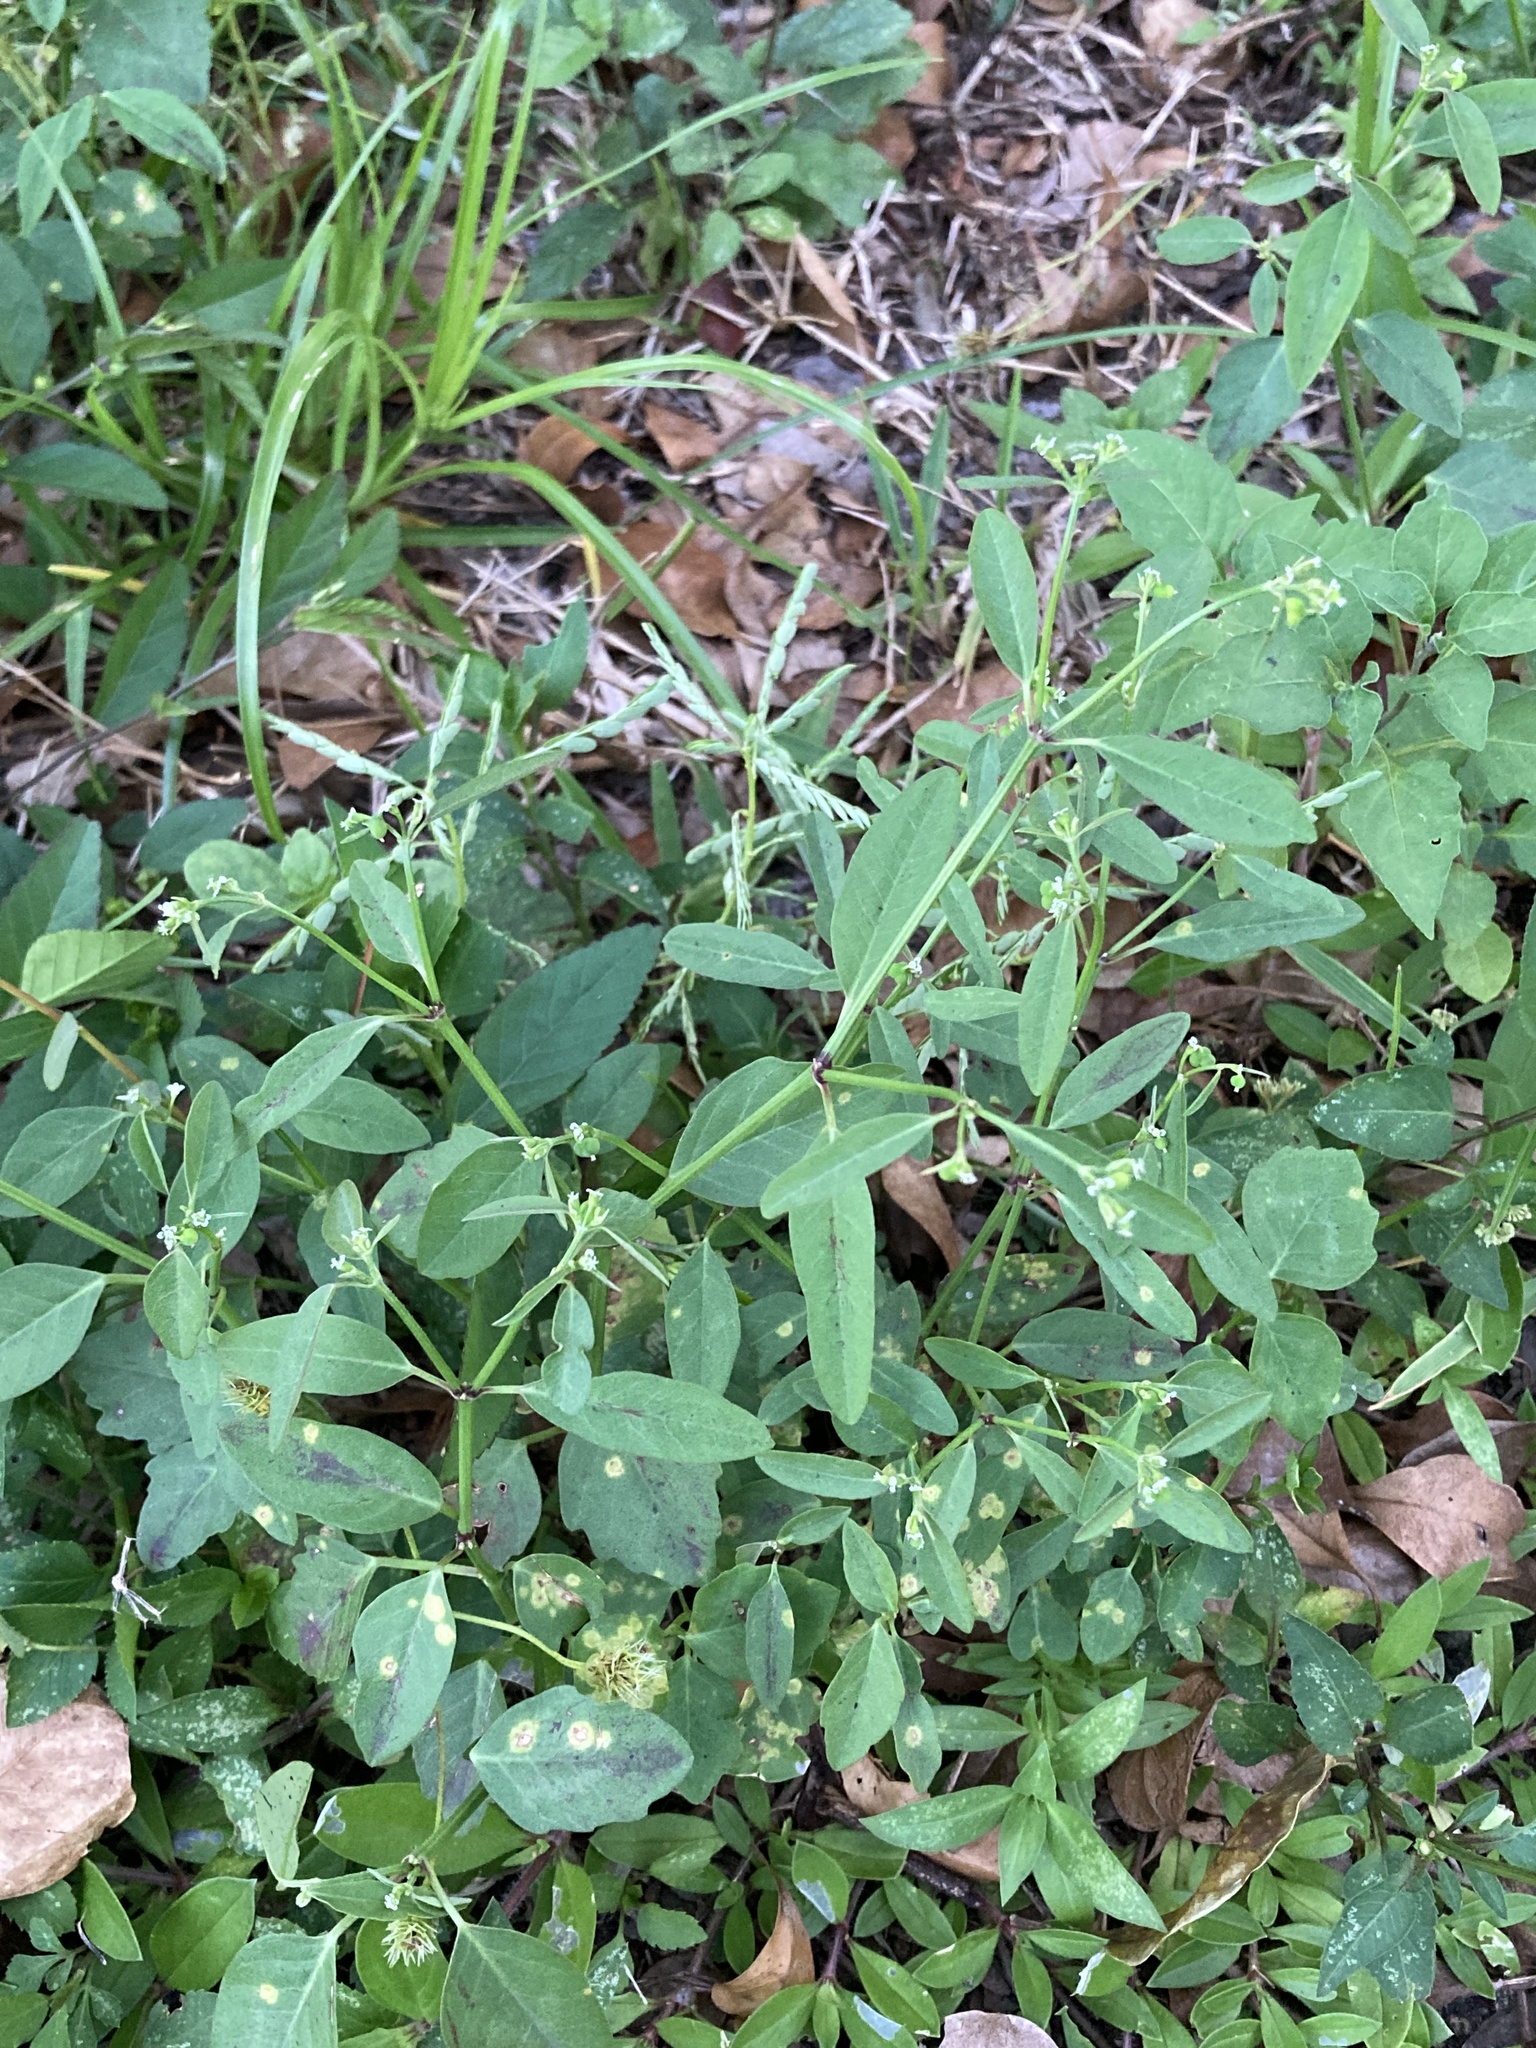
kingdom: Plantae
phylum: Tracheophyta
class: Magnoliopsida
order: Malpighiales
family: Euphorbiaceae
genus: Euphorbia
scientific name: Euphorbia graminea
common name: Grassleaf spurge
